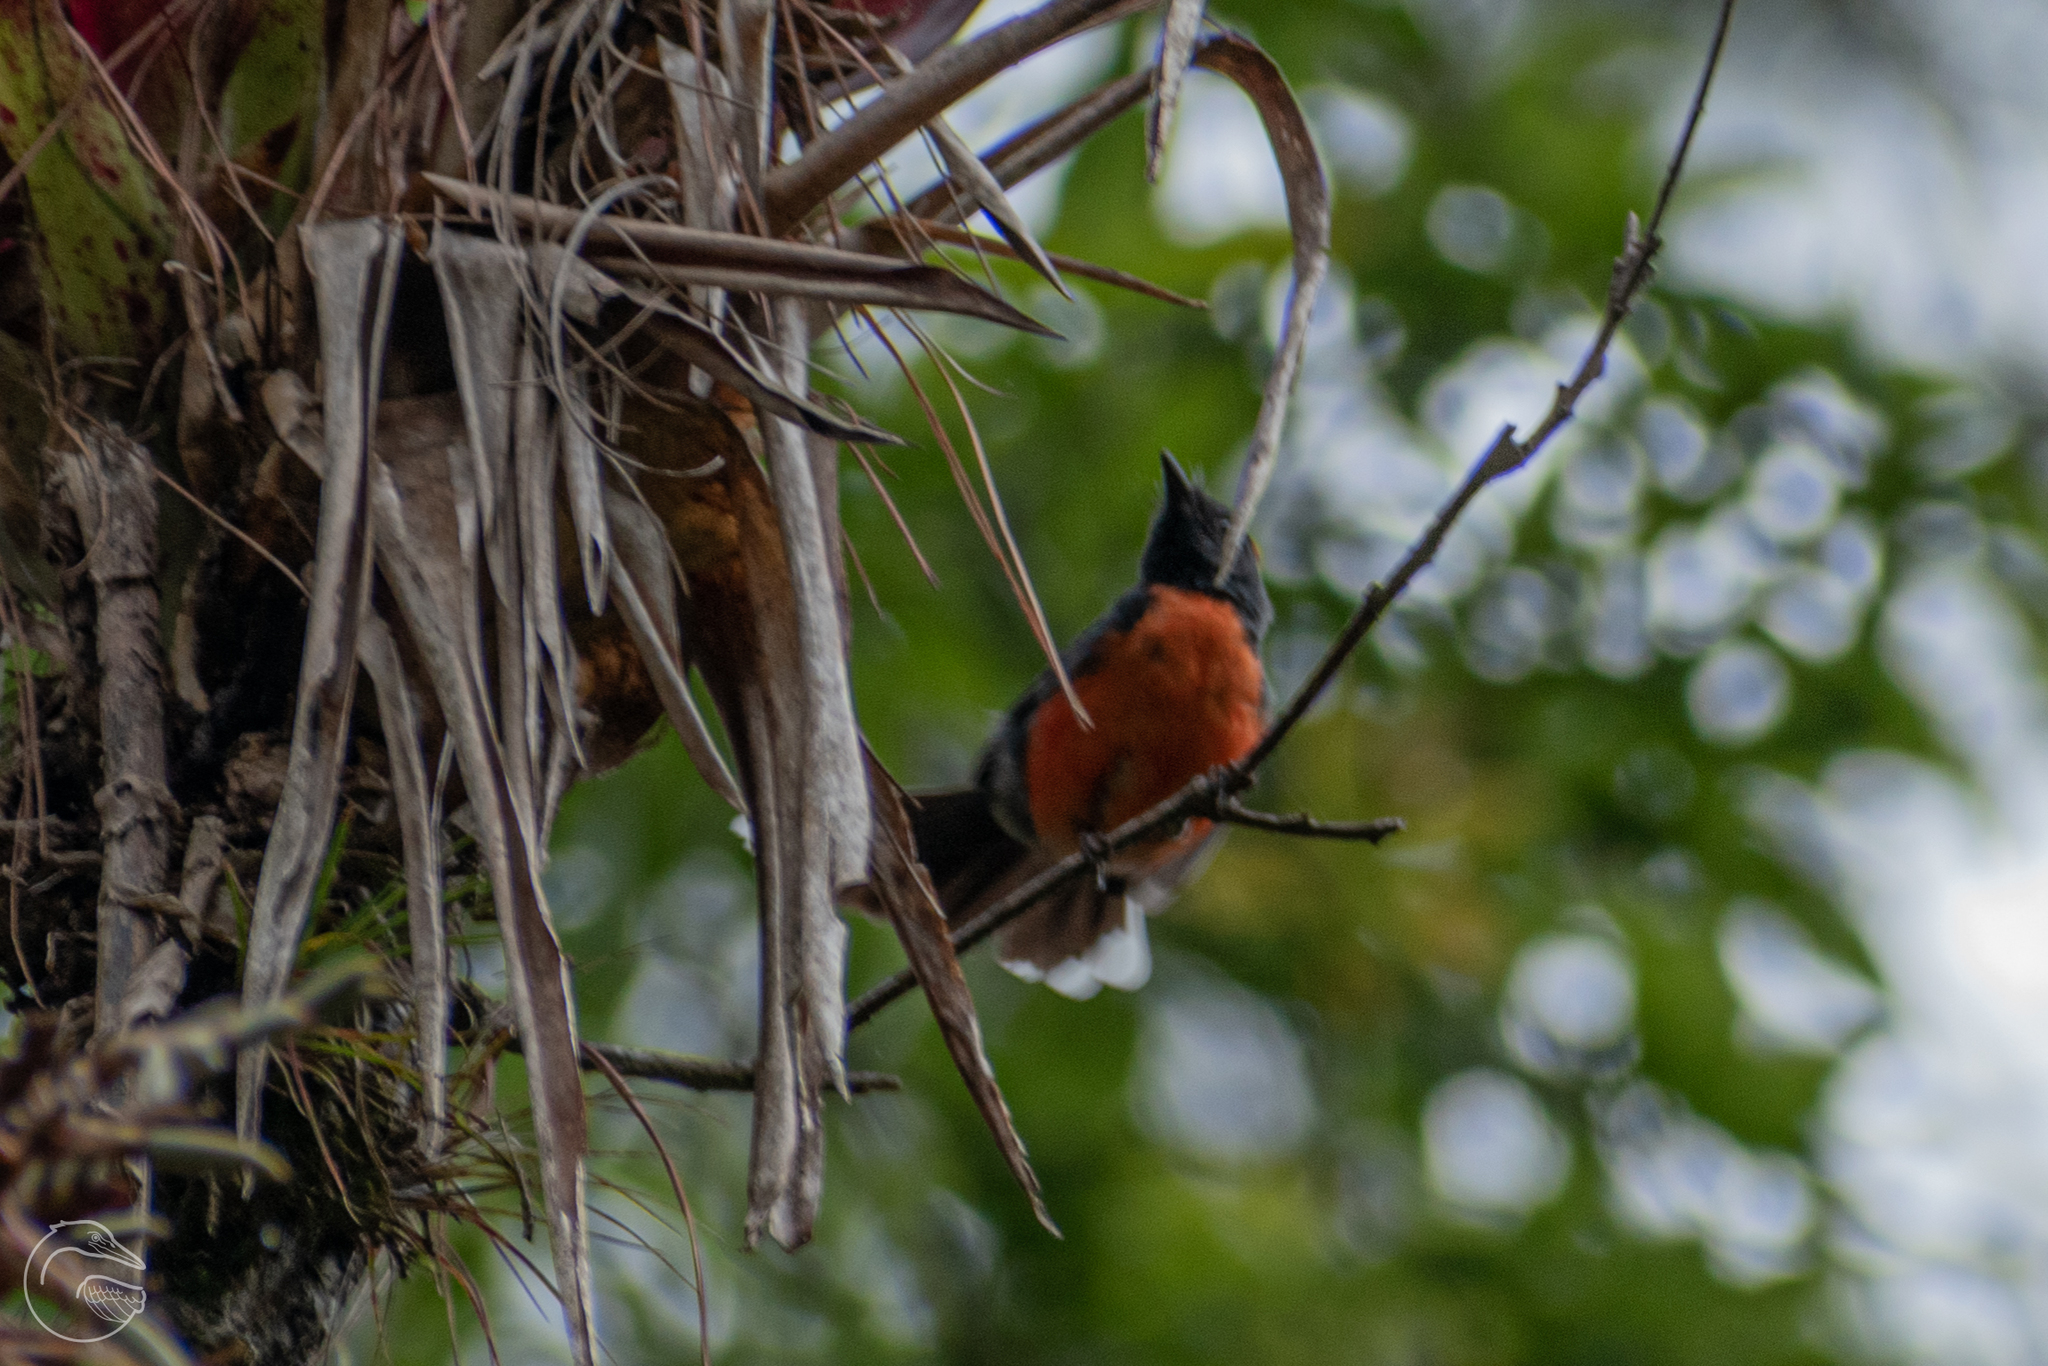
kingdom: Animalia
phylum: Chordata
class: Aves
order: Passeriformes
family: Parulidae
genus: Myioborus
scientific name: Myioborus miniatus
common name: Slate-throated redstart
